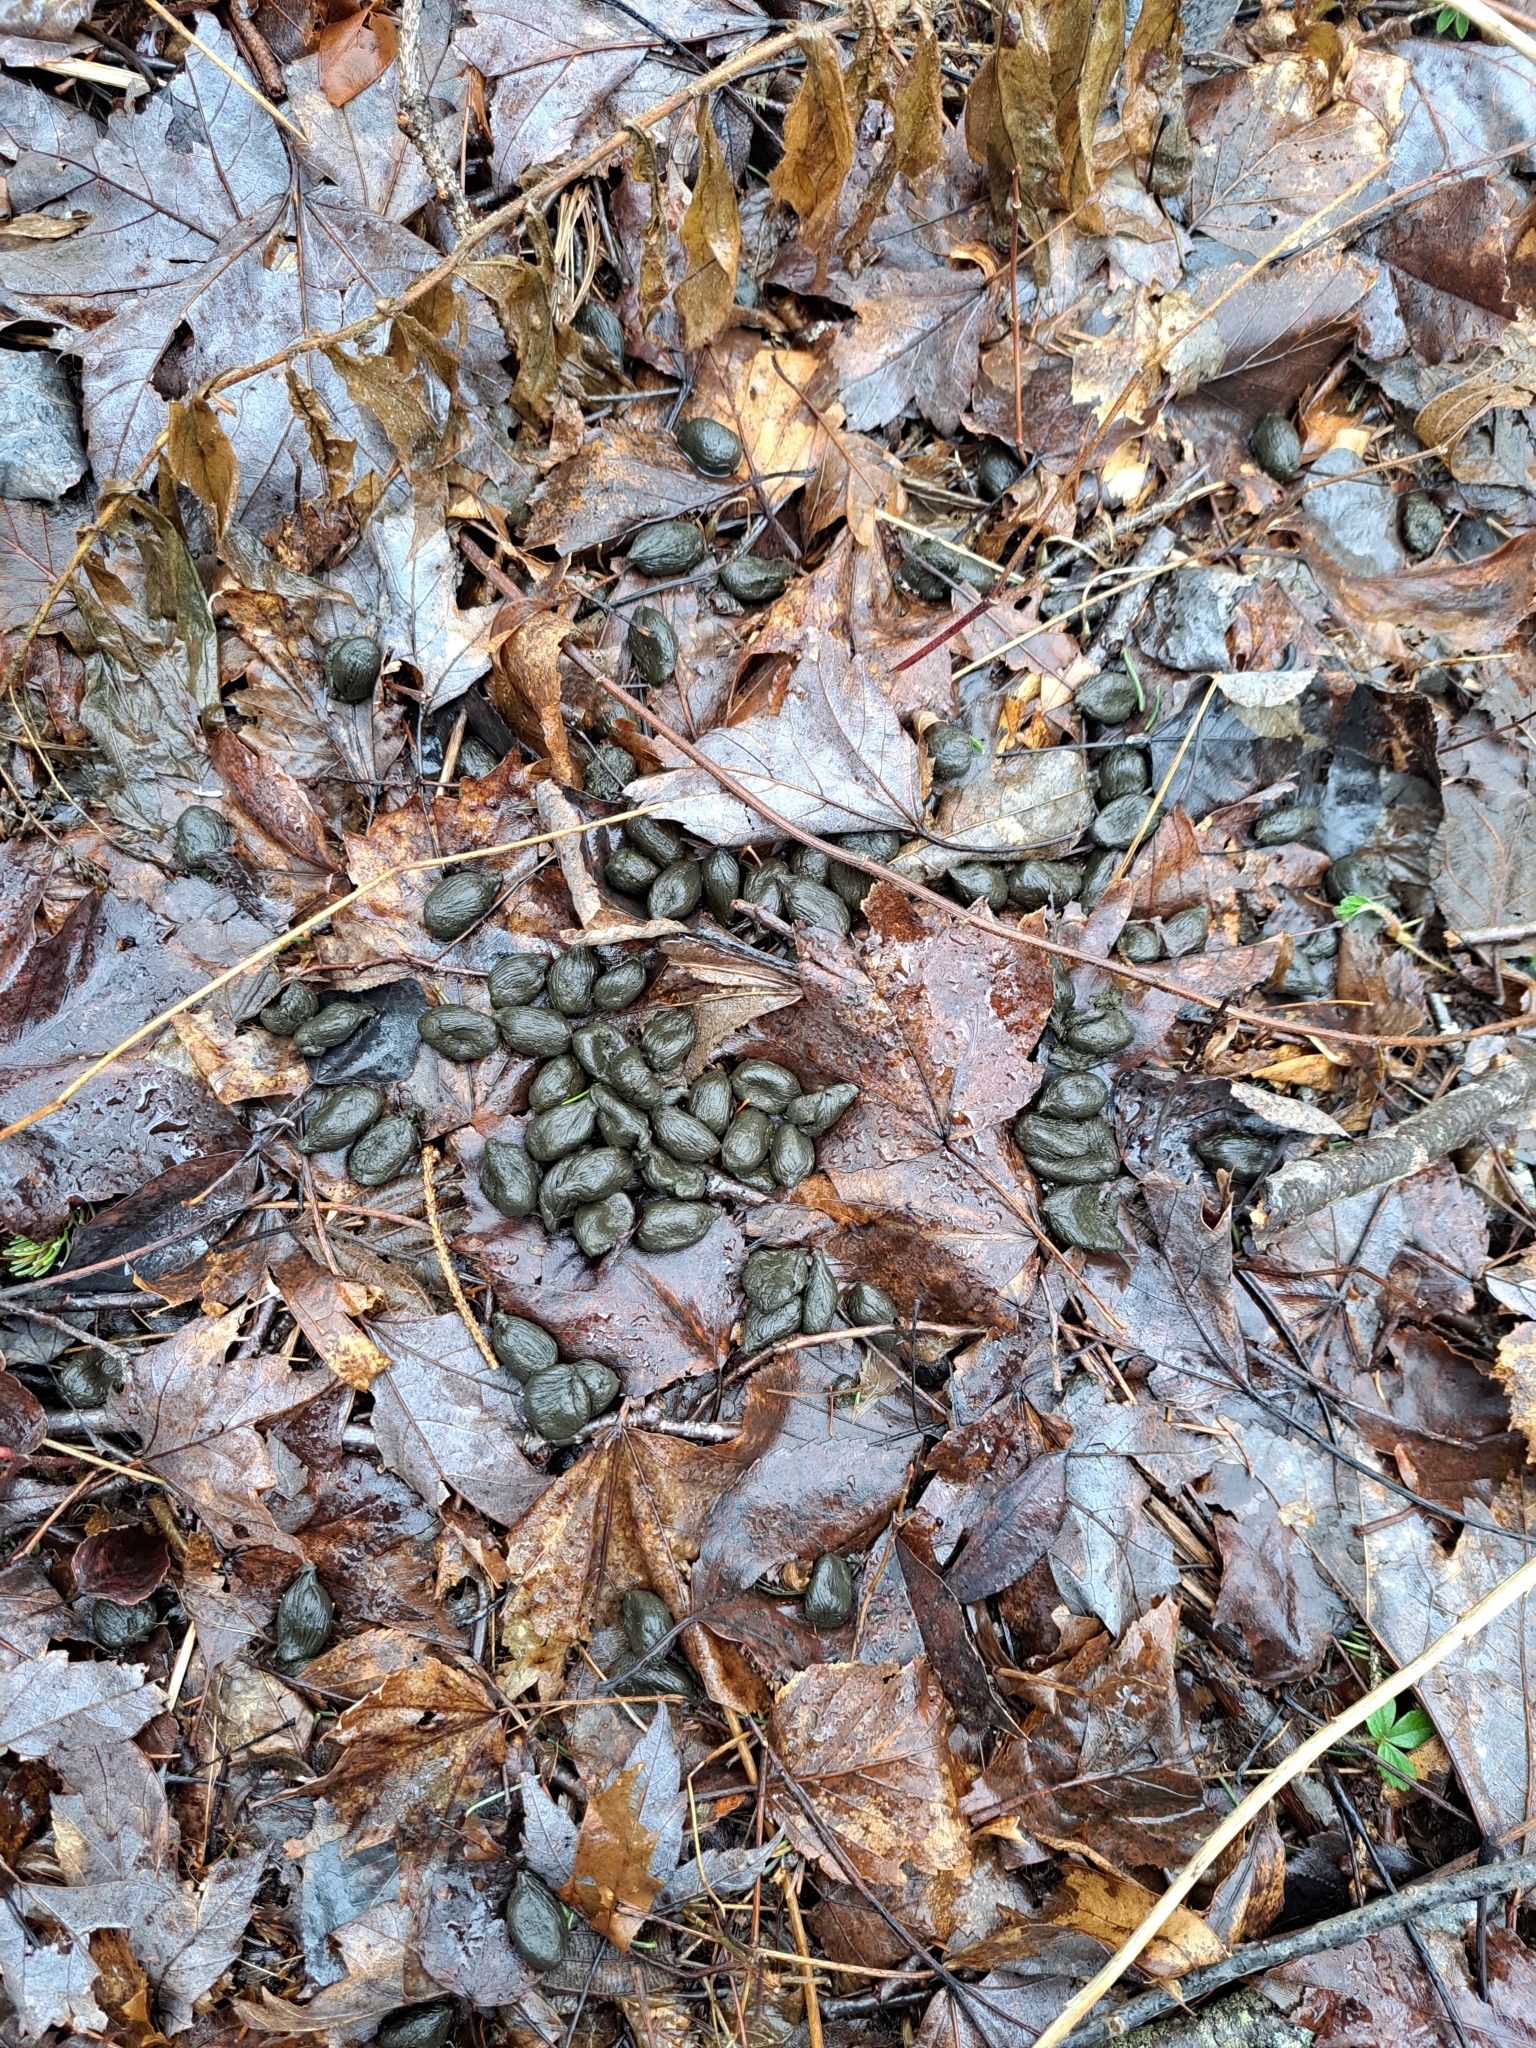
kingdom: Animalia
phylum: Chordata
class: Mammalia
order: Artiodactyla
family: Cervidae
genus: Odocoileus
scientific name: Odocoileus virginianus
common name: White-tailed deer
